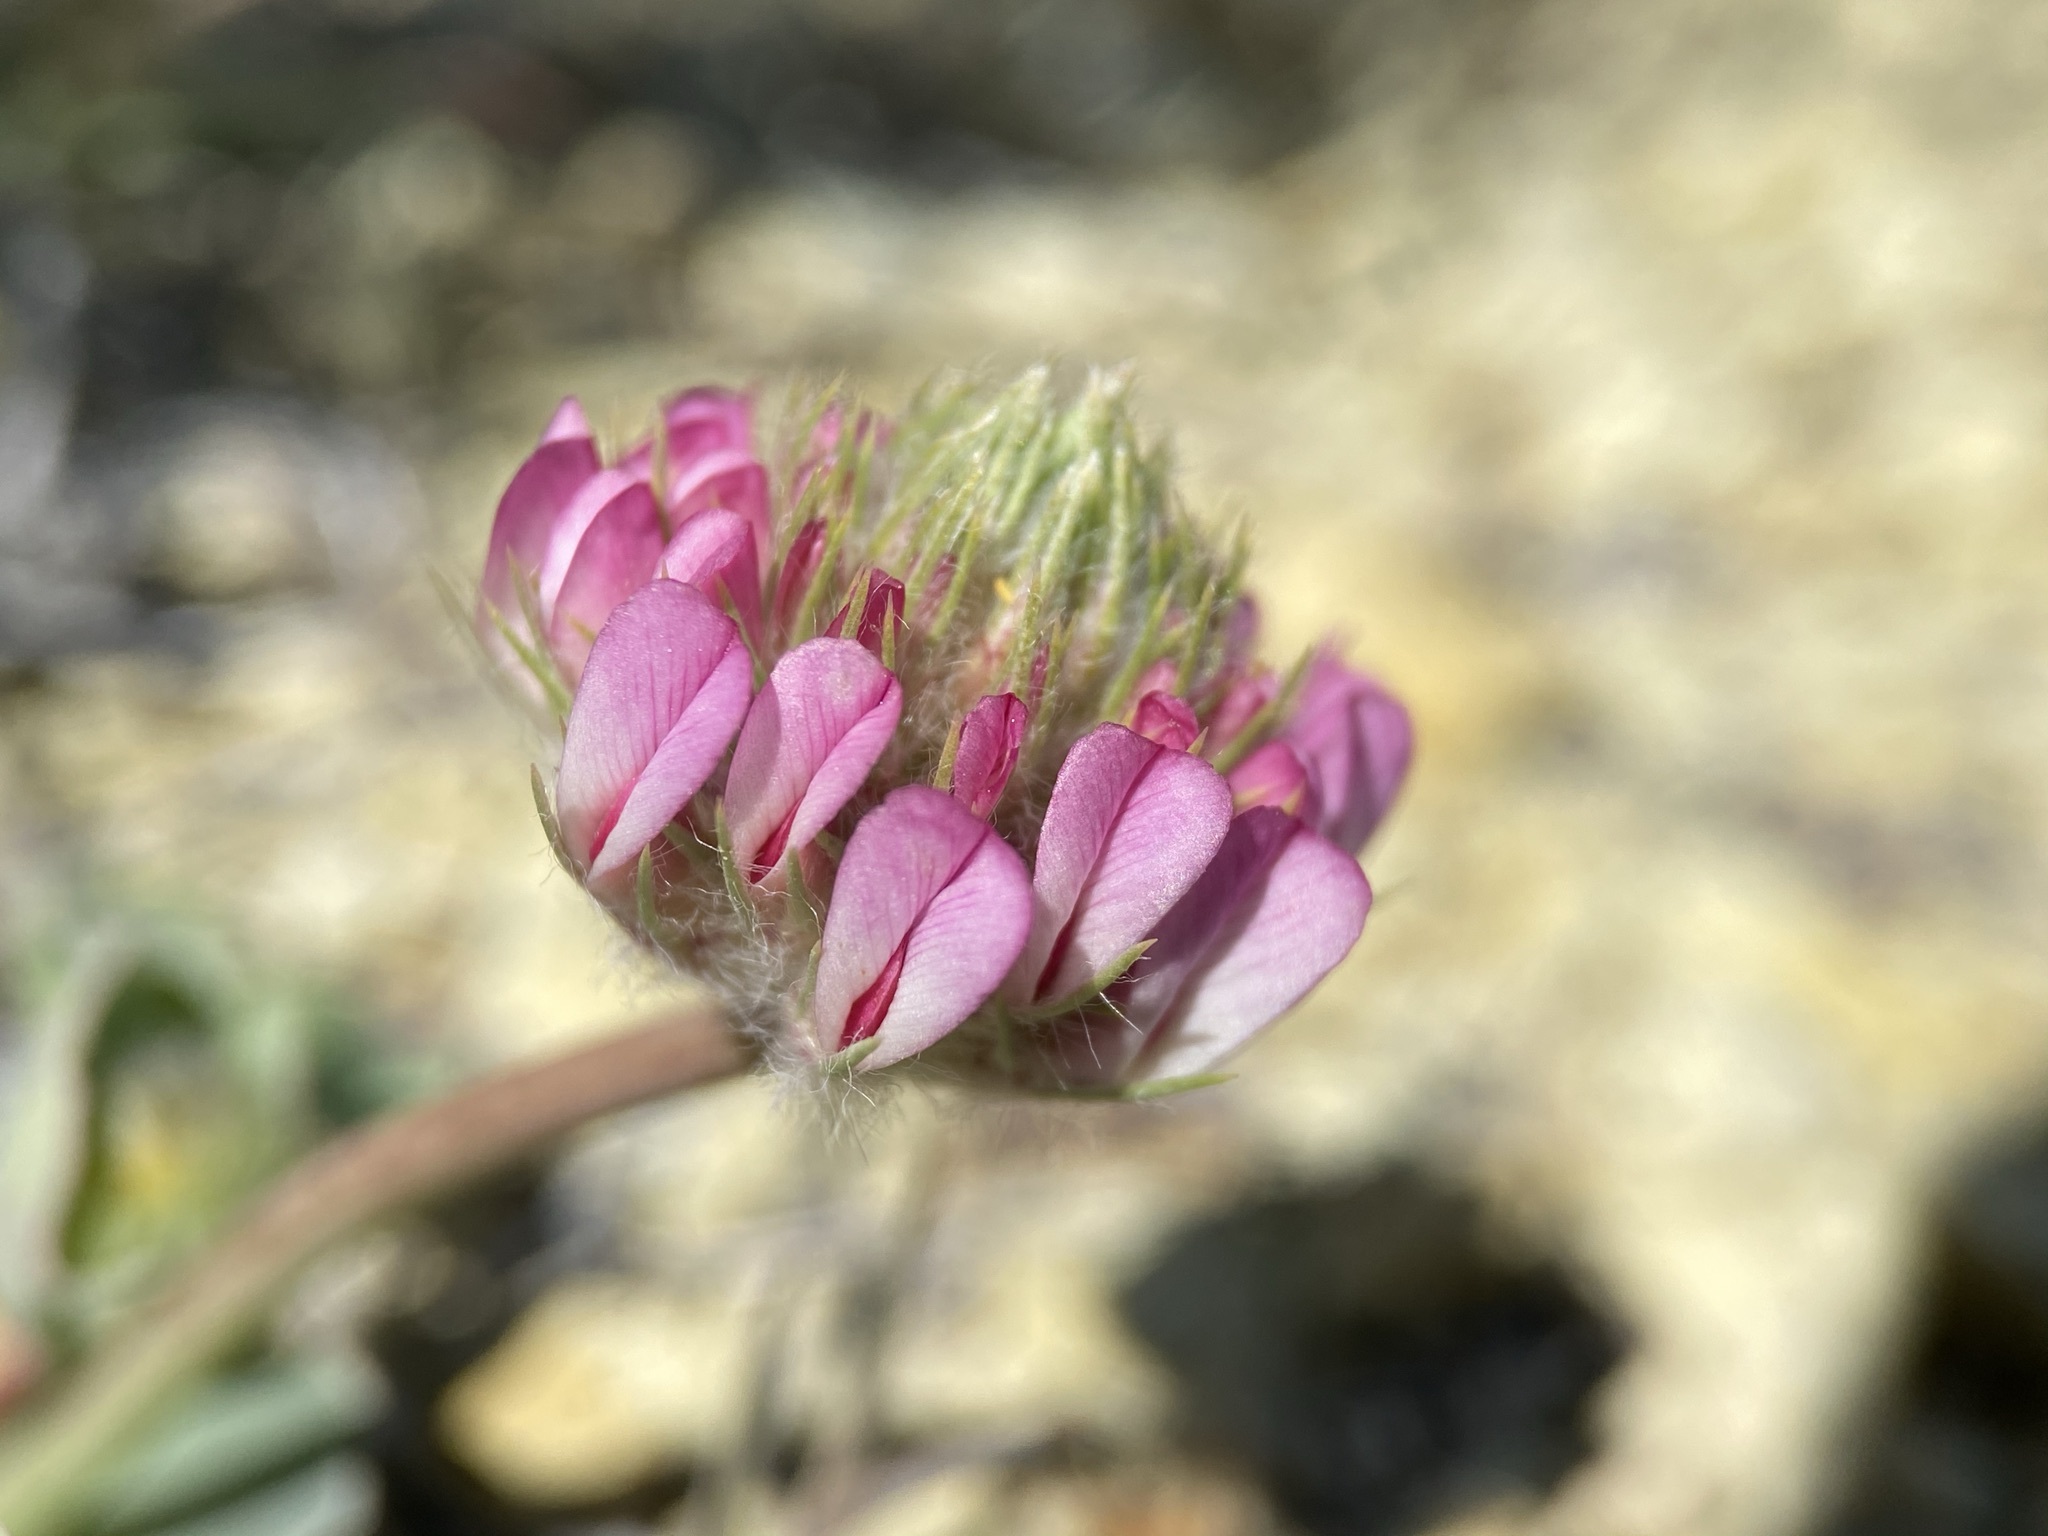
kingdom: Plantae
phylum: Tracheophyta
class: Magnoliopsida
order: Fabales
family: Fabaceae
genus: Trifolium
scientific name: Trifolium owyheense
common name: Owyhee clover
